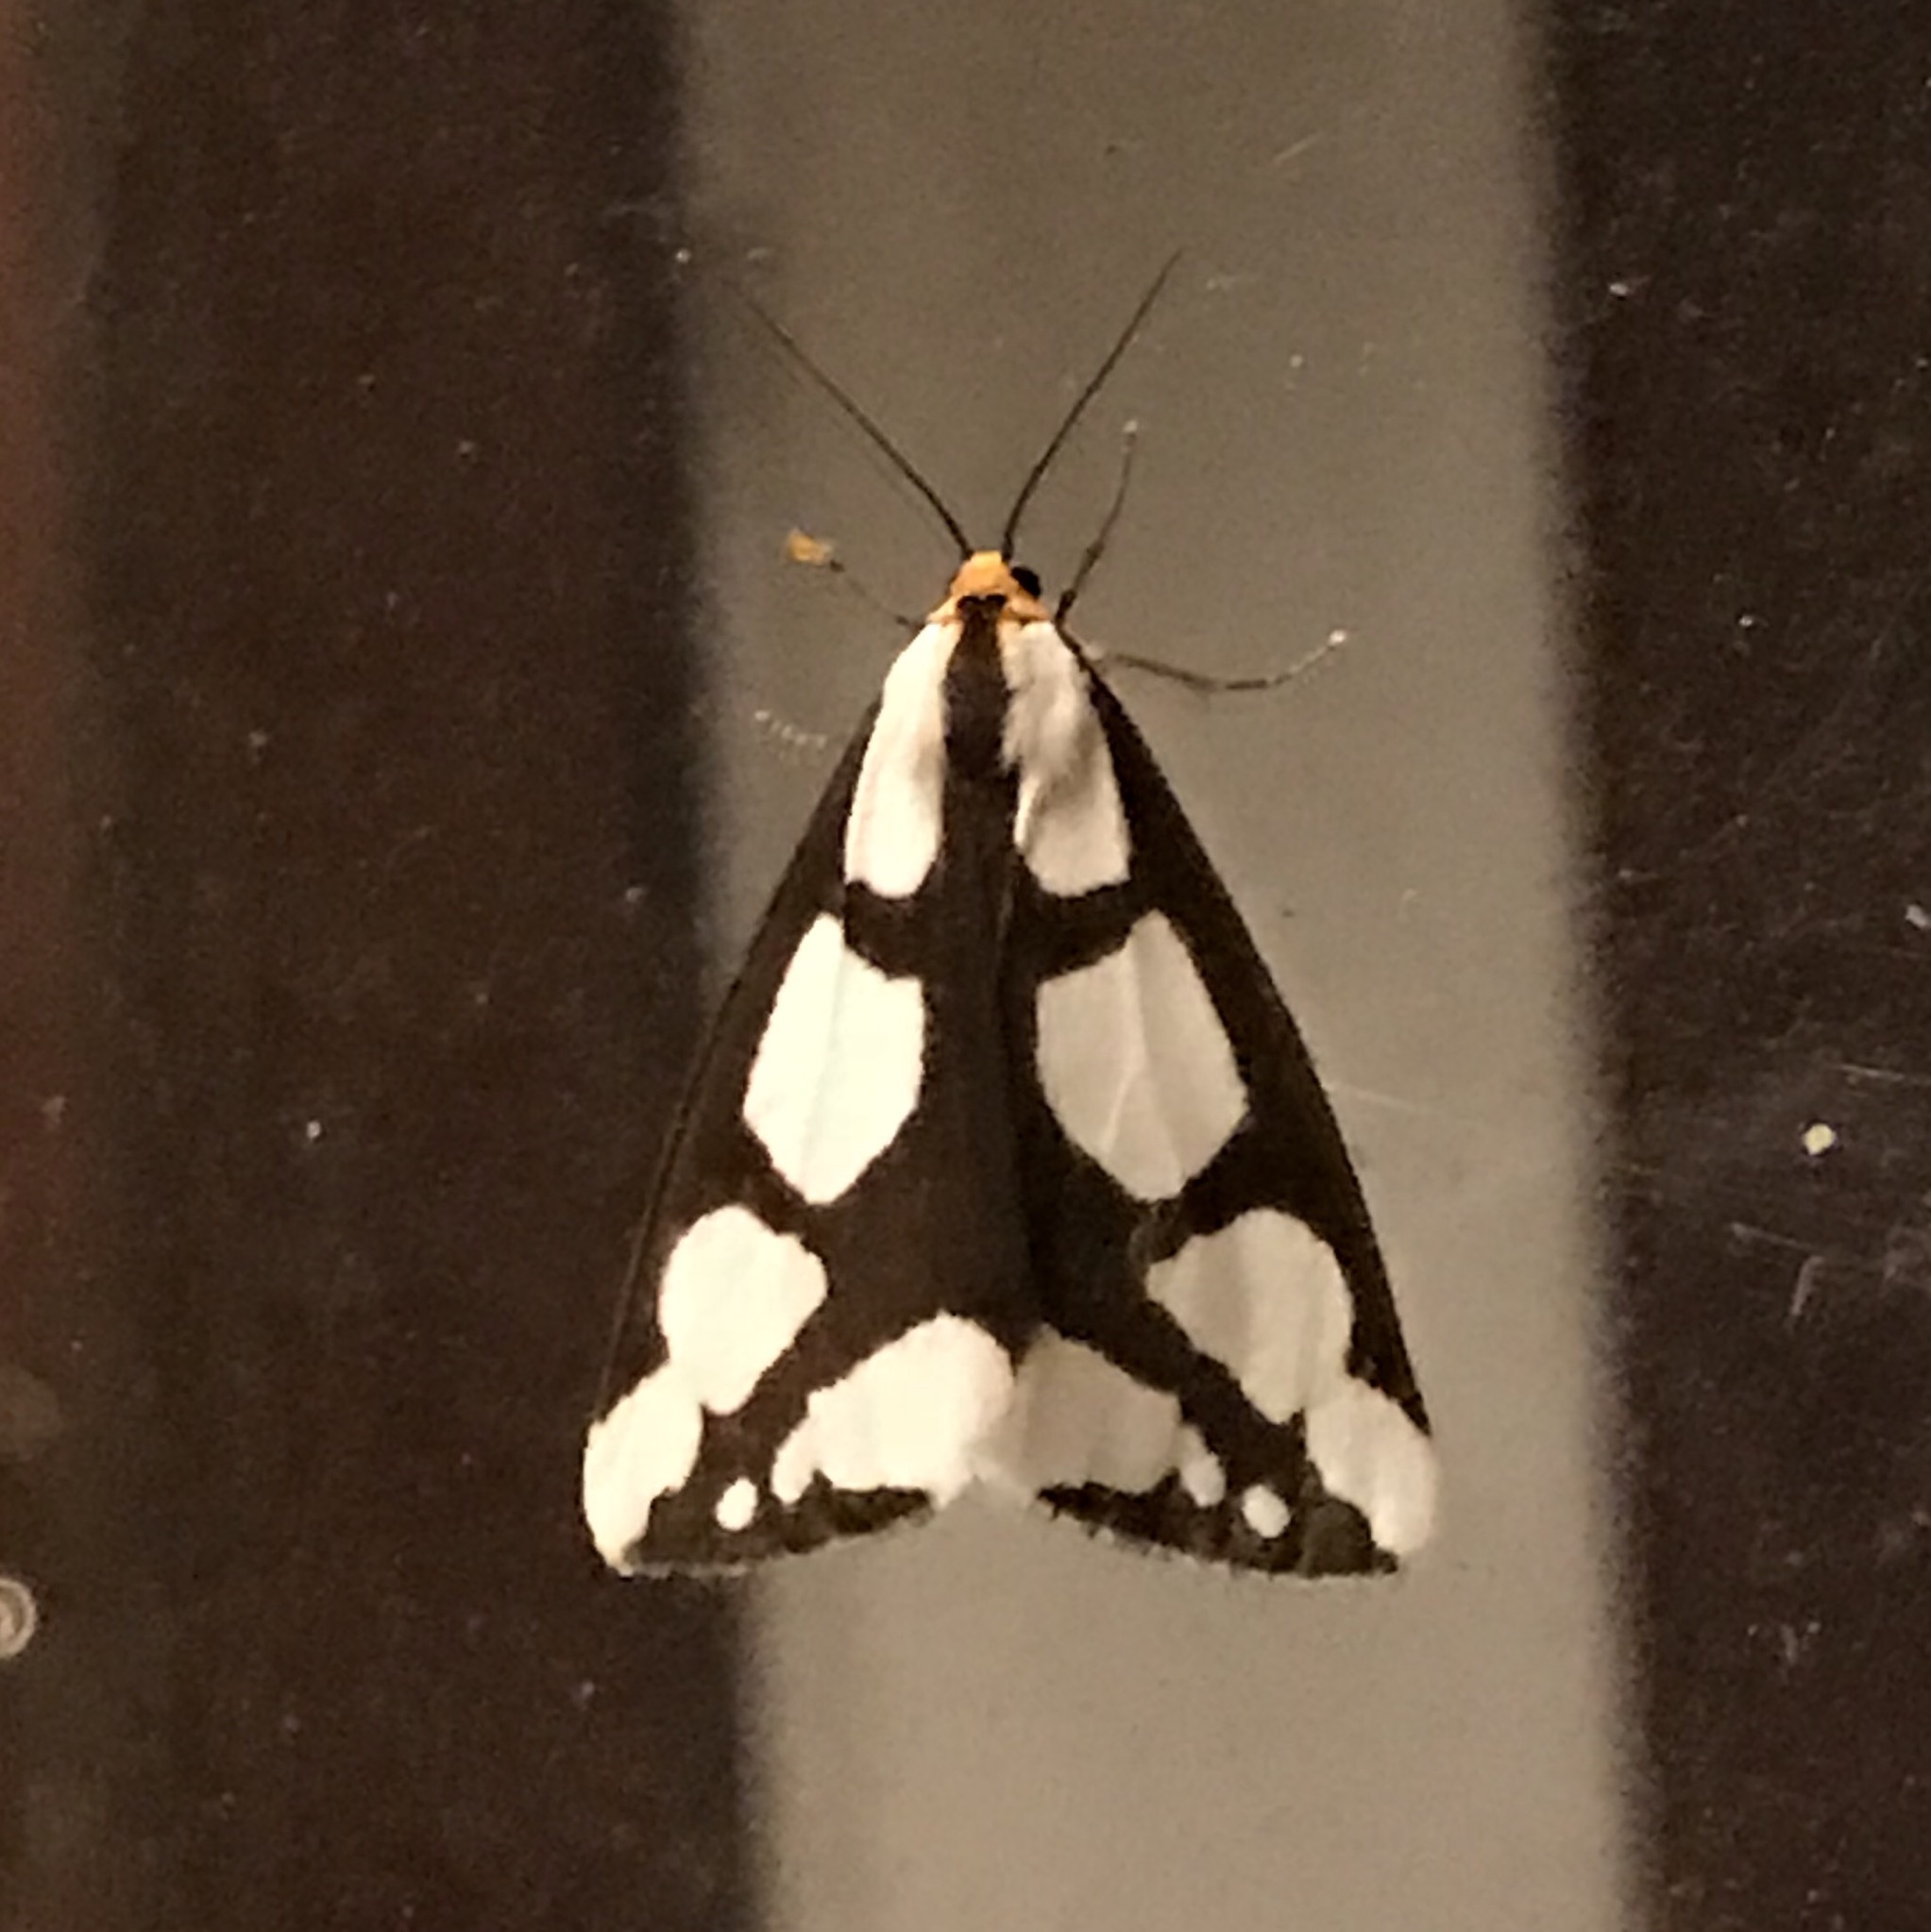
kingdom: Animalia
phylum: Arthropoda
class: Insecta
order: Lepidoptera
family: Erebidae
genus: Haploa
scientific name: Haploa lecontei
